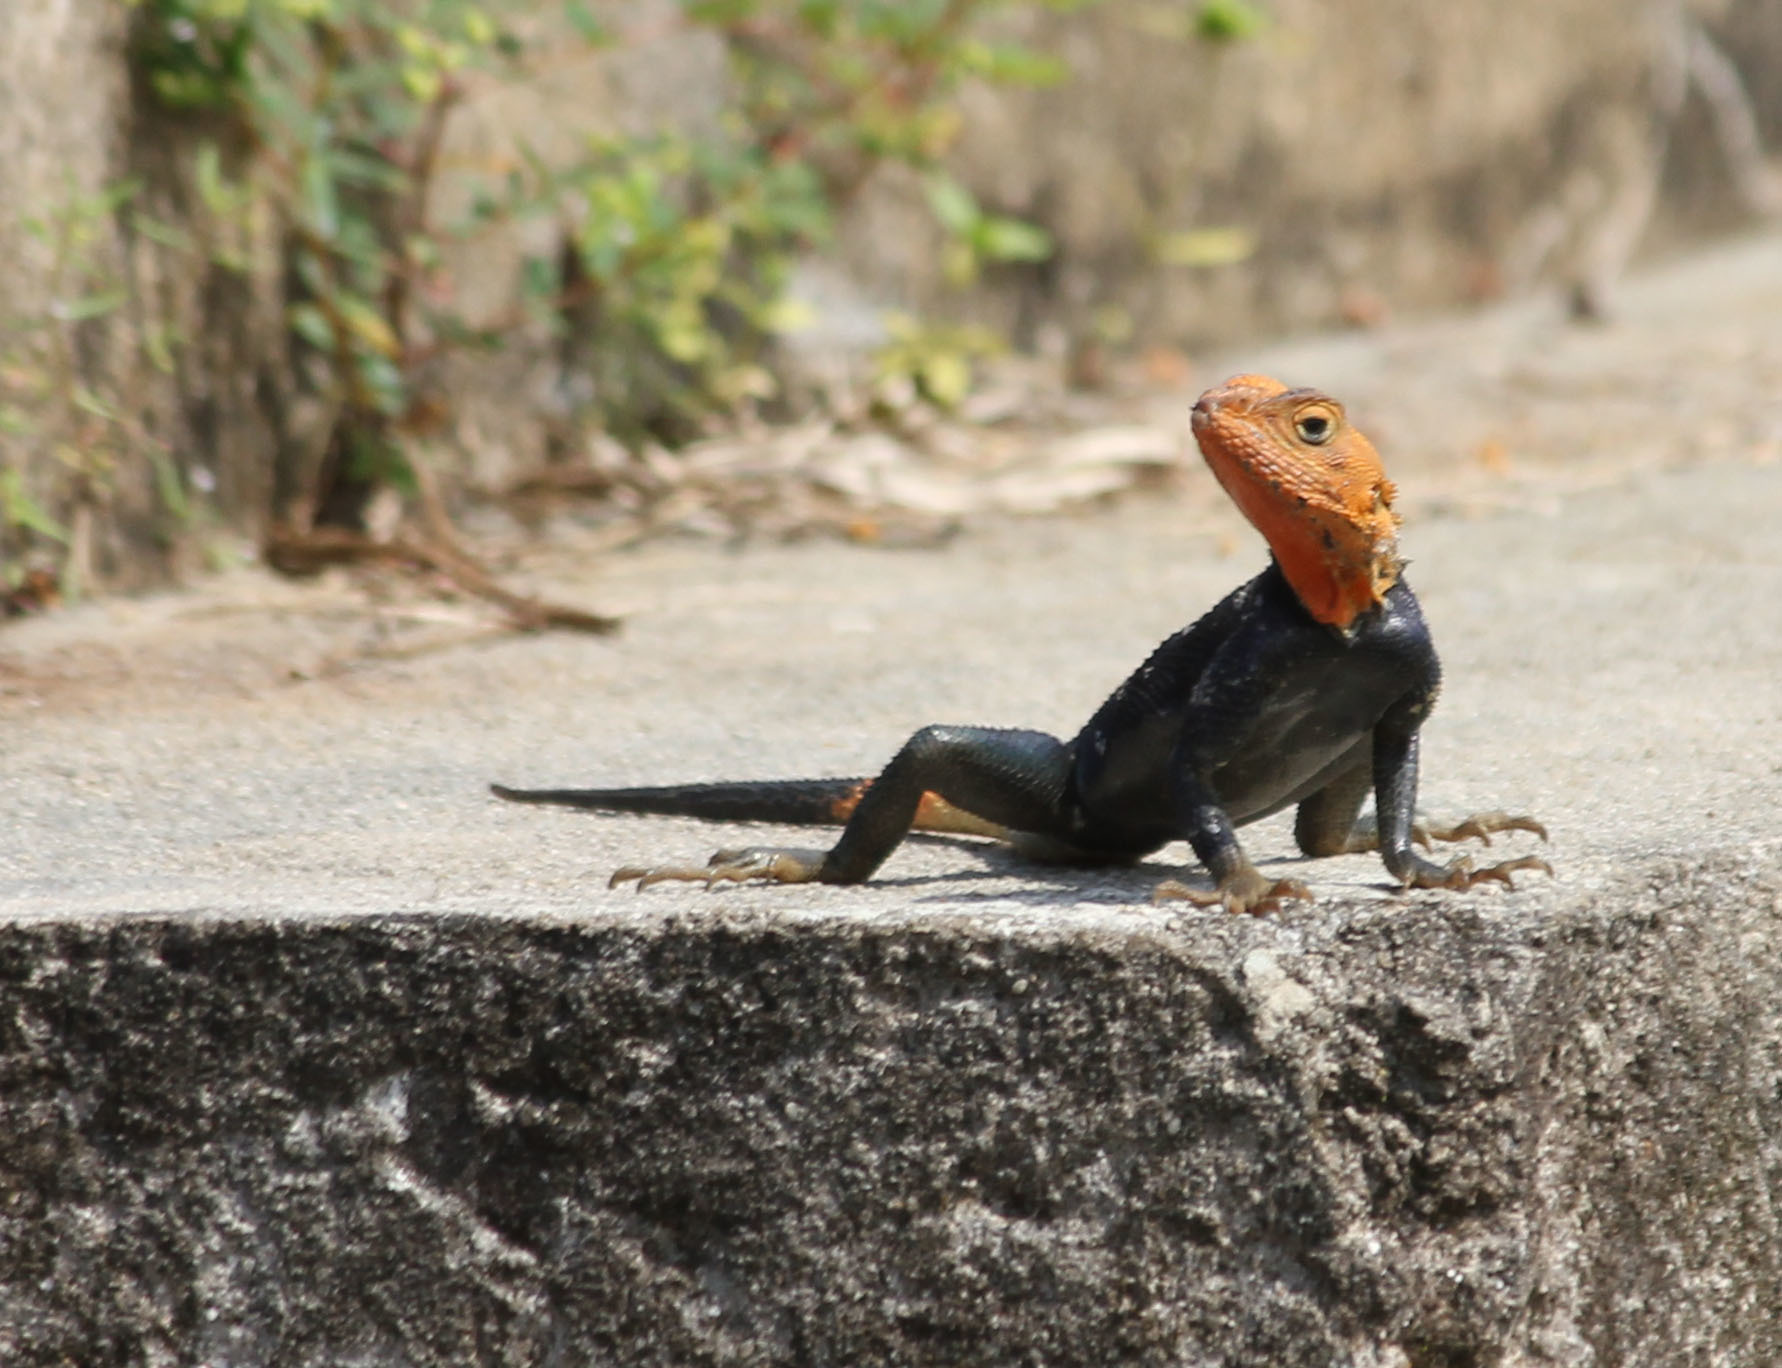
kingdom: Animalia
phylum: Chordata
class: Squamata
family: Agamidae
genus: Agama
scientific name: Agama agama
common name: Common agama
